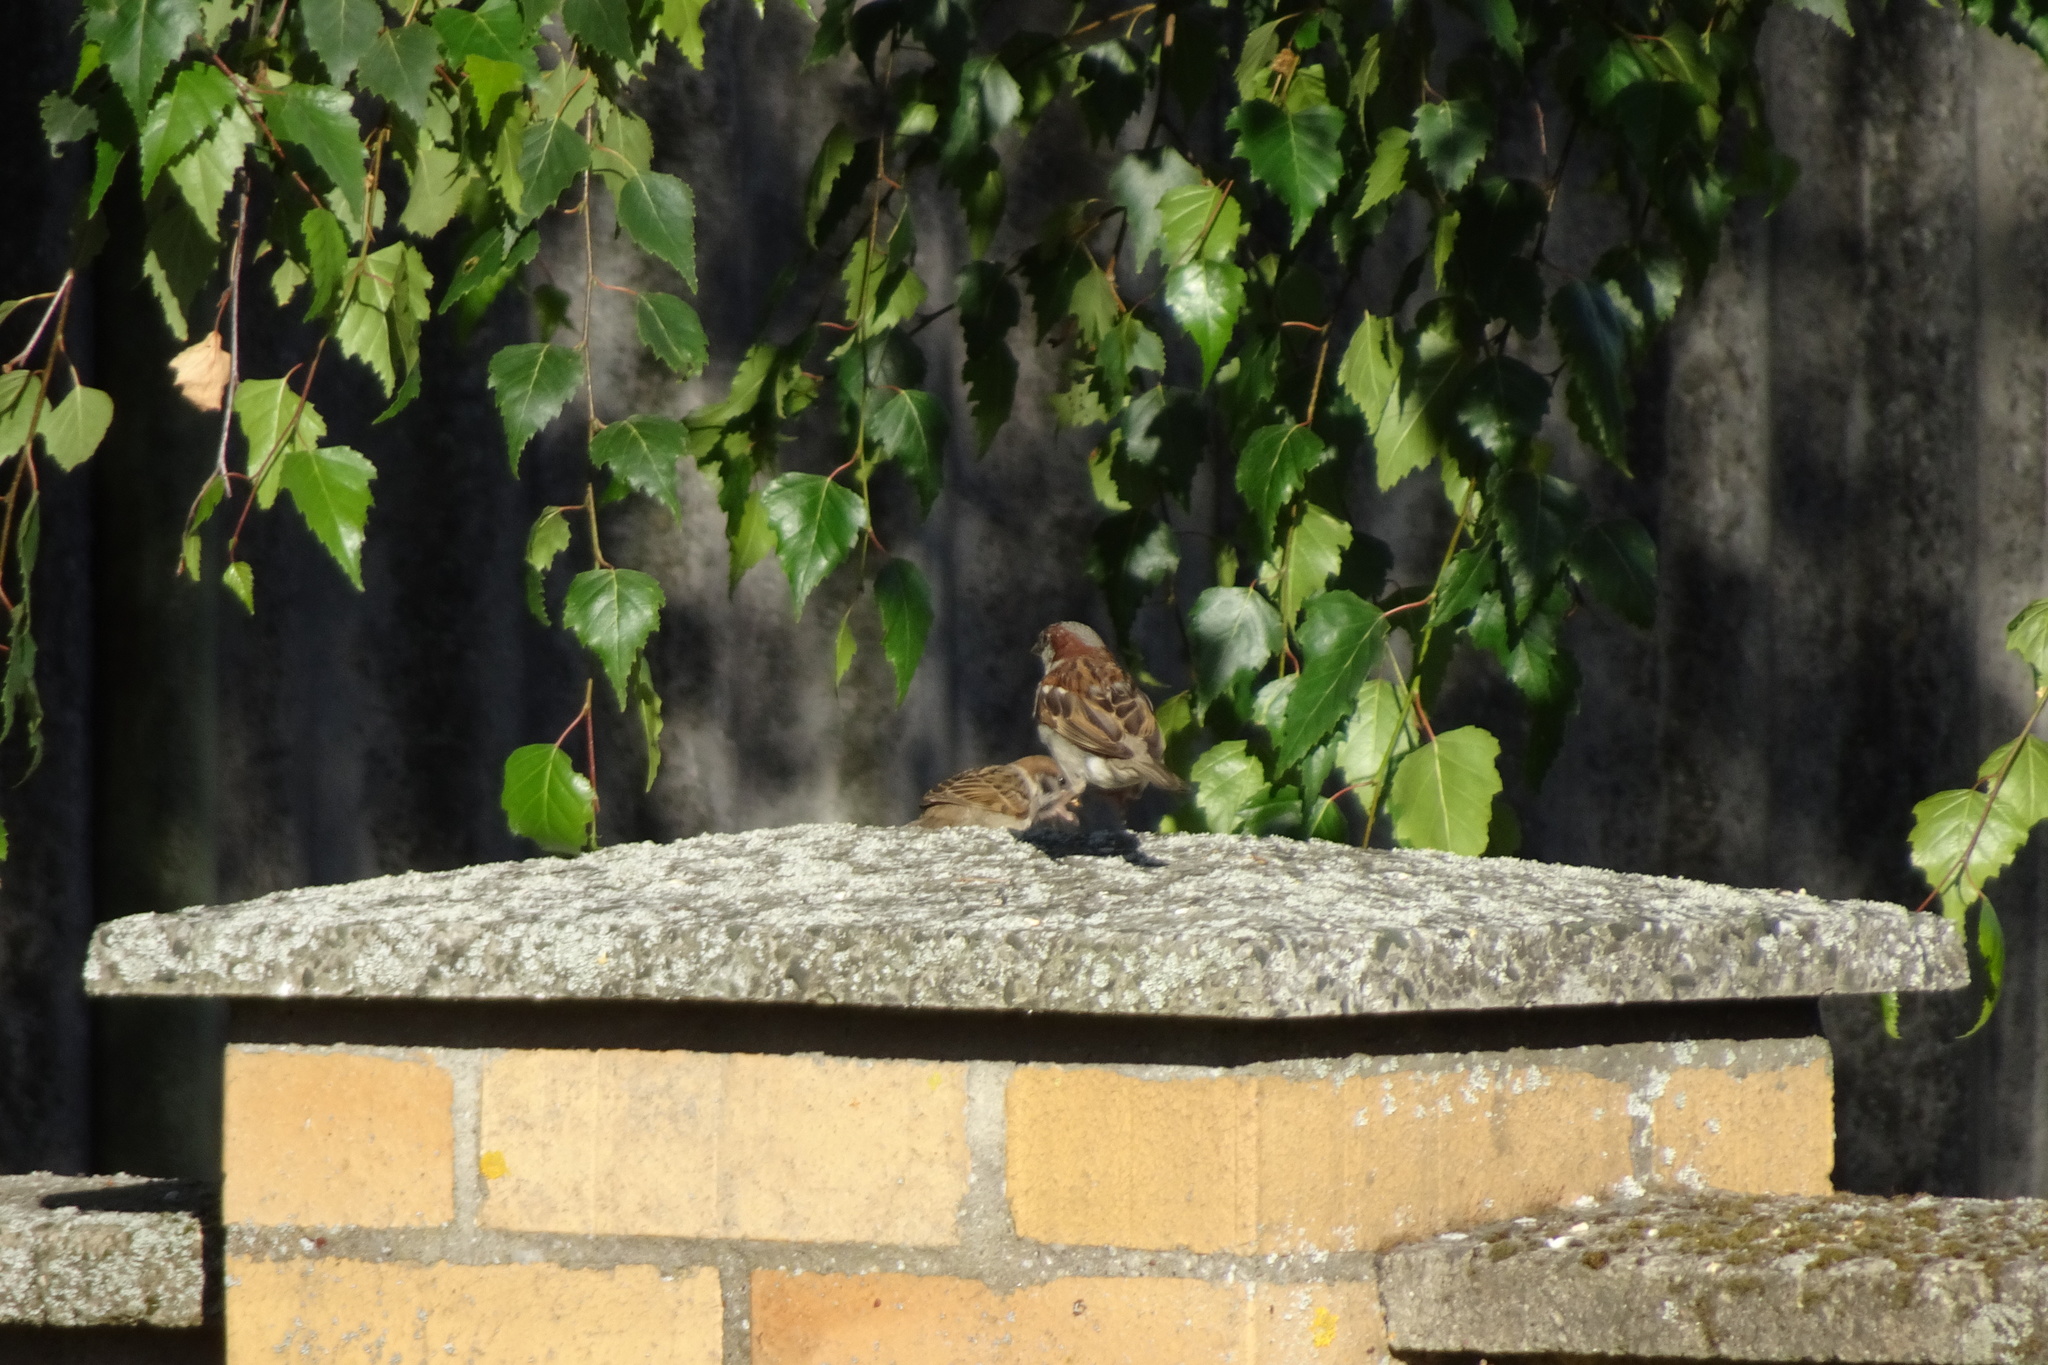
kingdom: Animalia
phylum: Chordata
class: Aves
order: Passeriformes
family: Passeridae
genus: Passer
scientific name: Passer domesticus
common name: House sparrow
